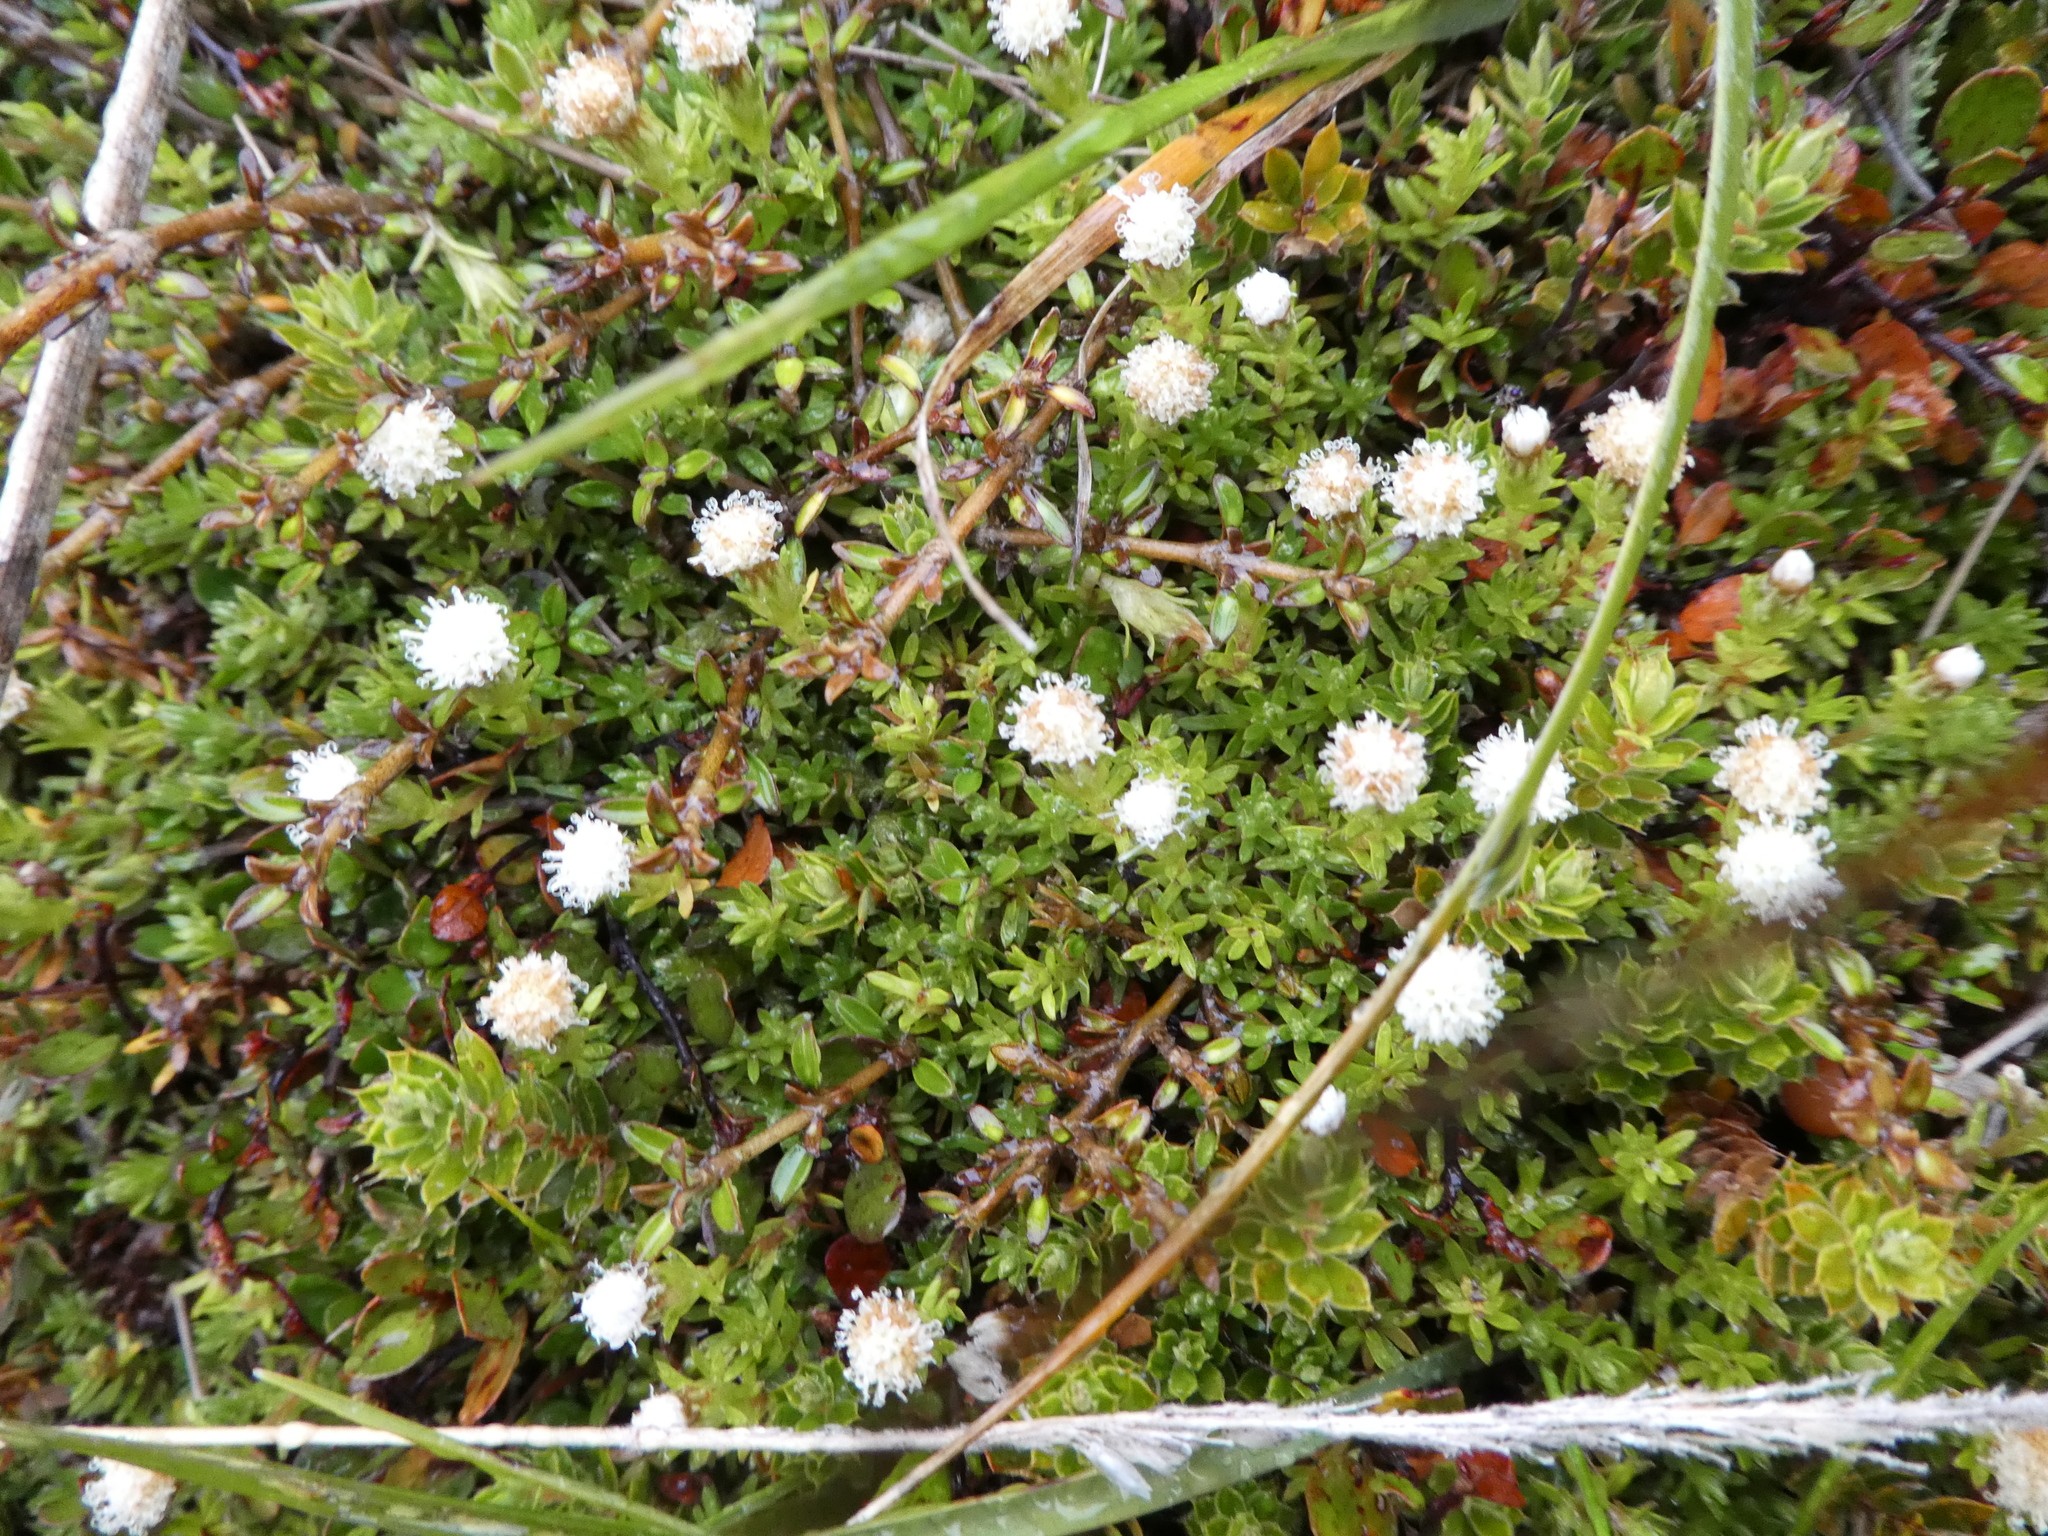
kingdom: Plantae
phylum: Tracheophyta
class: Magnoliopsida
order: Asterales
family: Asteraceae
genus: Raoulia
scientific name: Raoulia glabra
